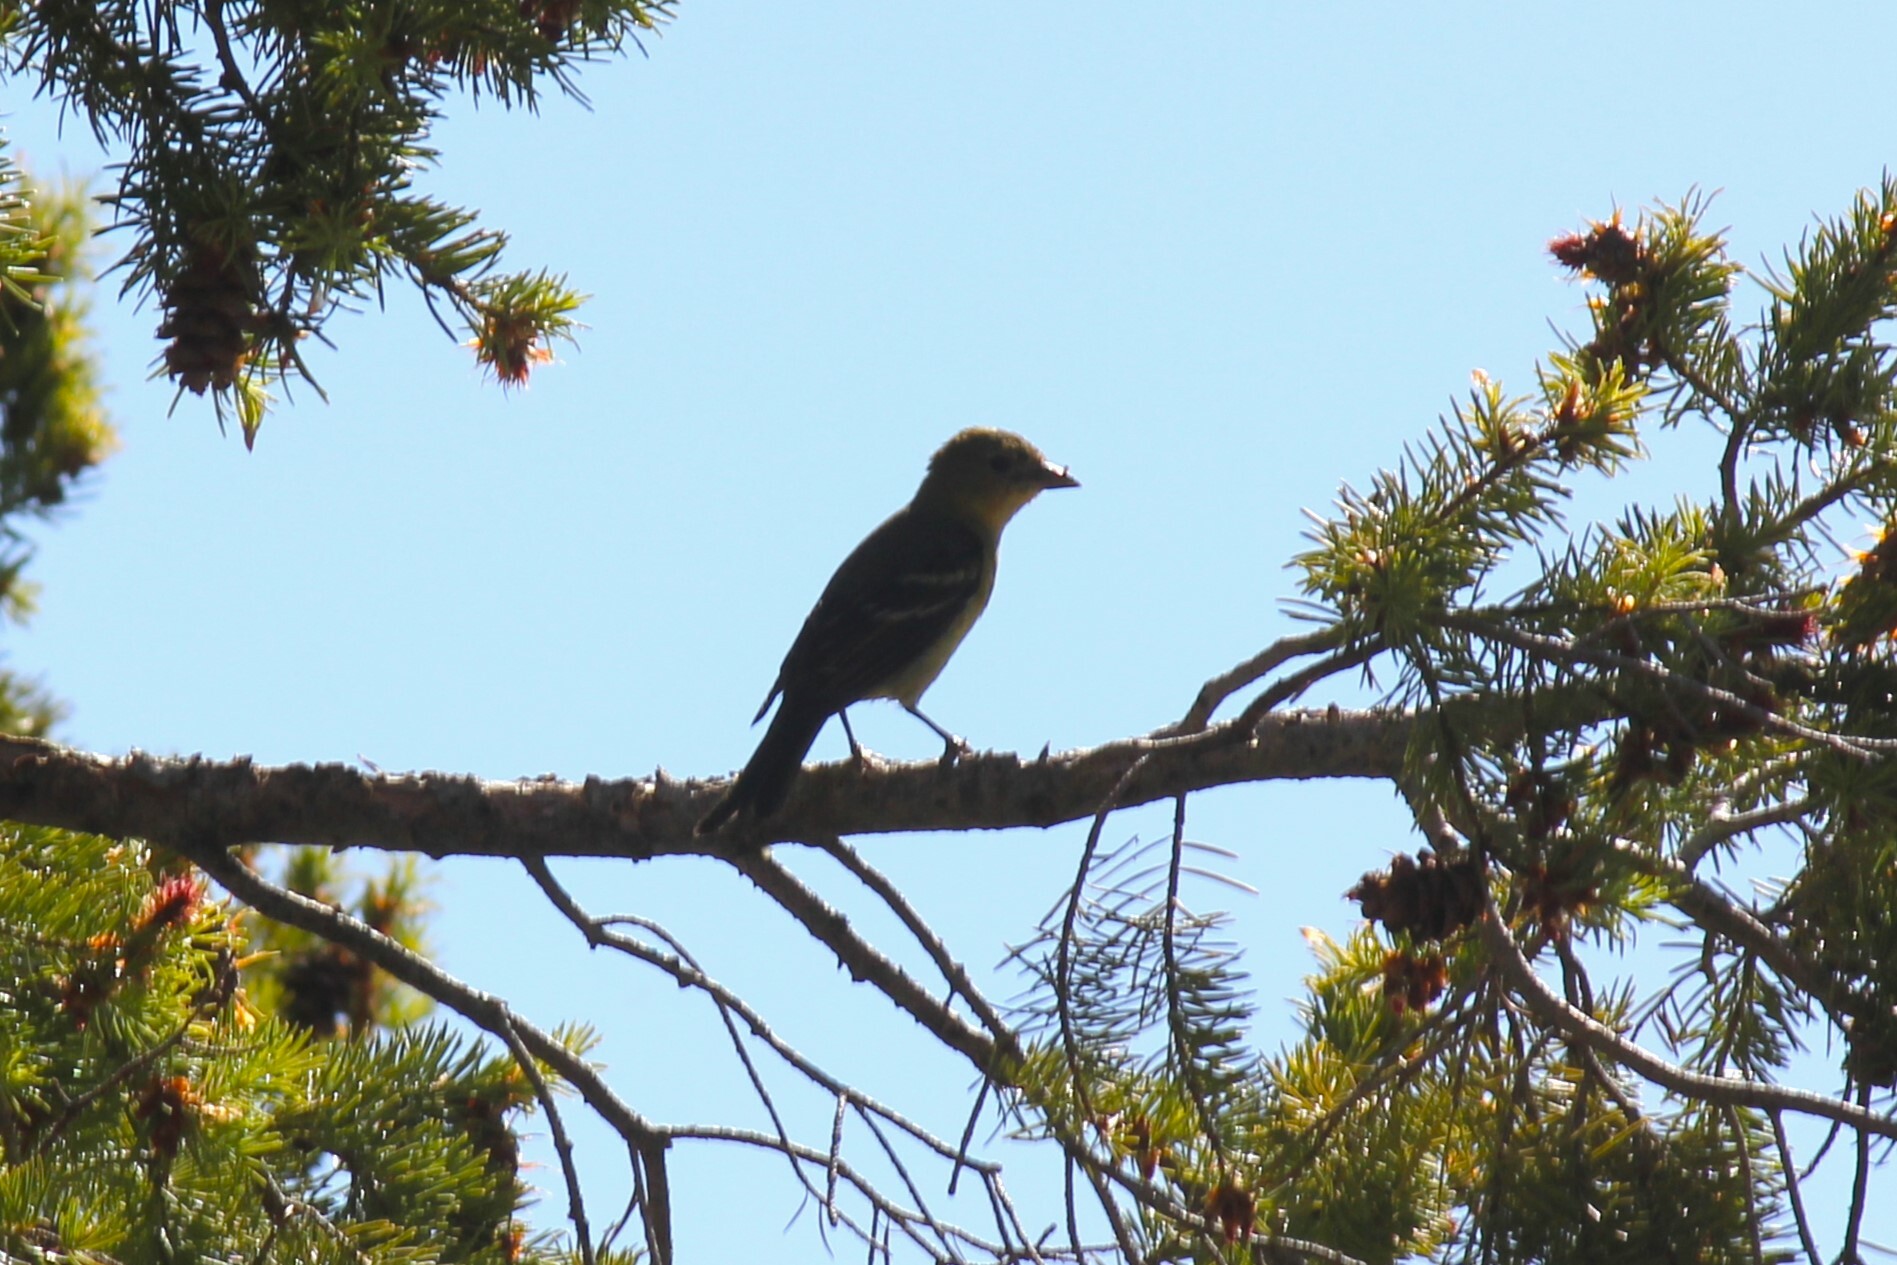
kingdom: Animalia
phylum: Chordata
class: Aves
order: Passeriformes
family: Cardinalidae
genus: Piranga
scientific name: Piranga ludoviciana
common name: Western tanager
